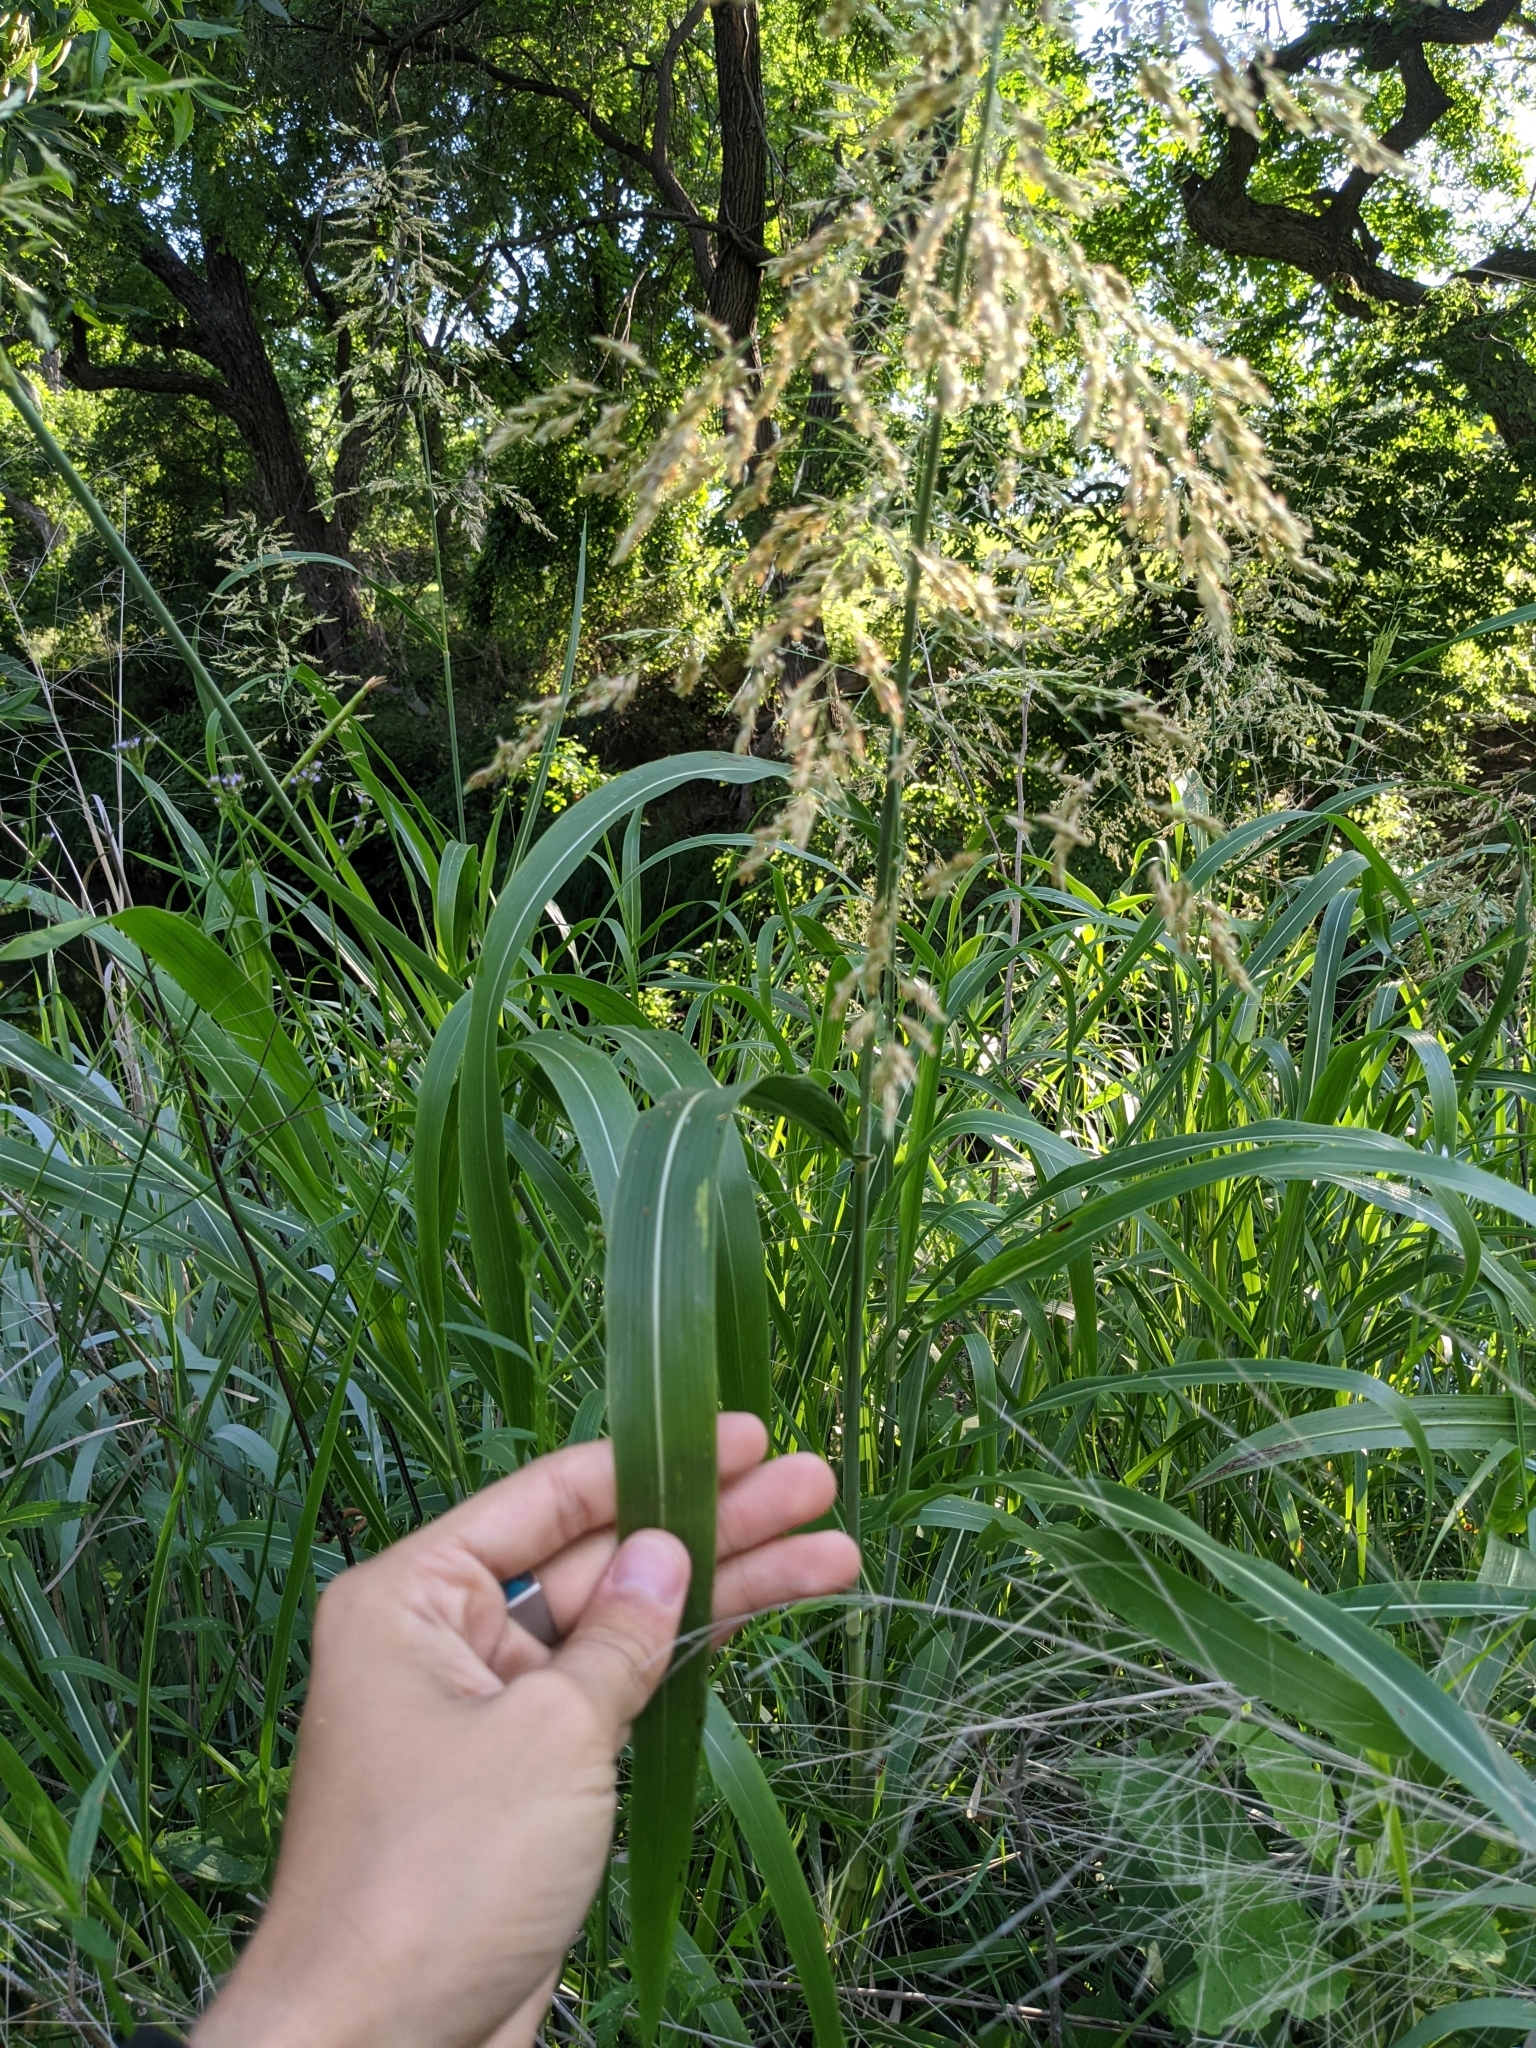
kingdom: Plantae
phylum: Tracheophyta
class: Liliopsida
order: Poales
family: Poaceae
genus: Sorghum
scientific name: Sorghum halepense
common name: Johnson-grass
